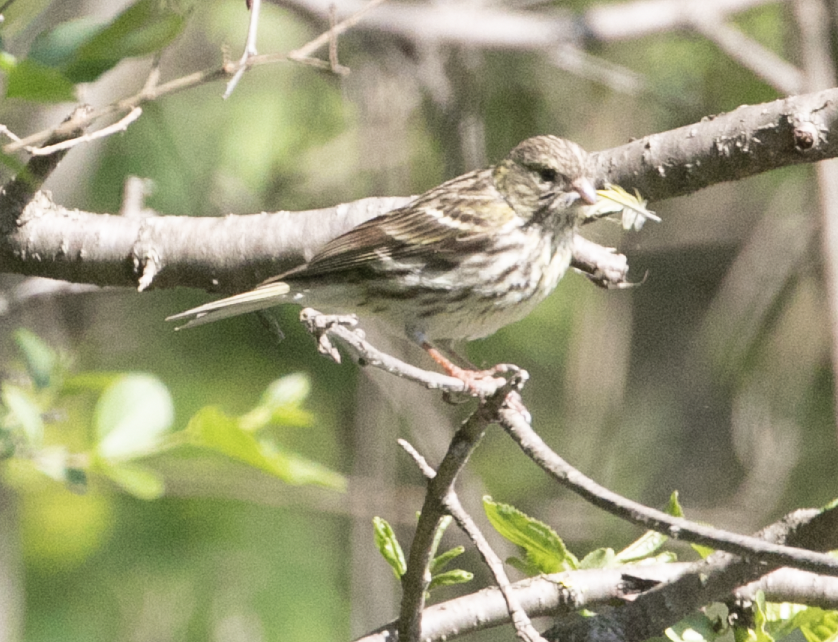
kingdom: Animalia
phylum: Chordata
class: Aves
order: Passeriformes
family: Fringillidae
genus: Serinus
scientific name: Serinus serinus
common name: European serin
